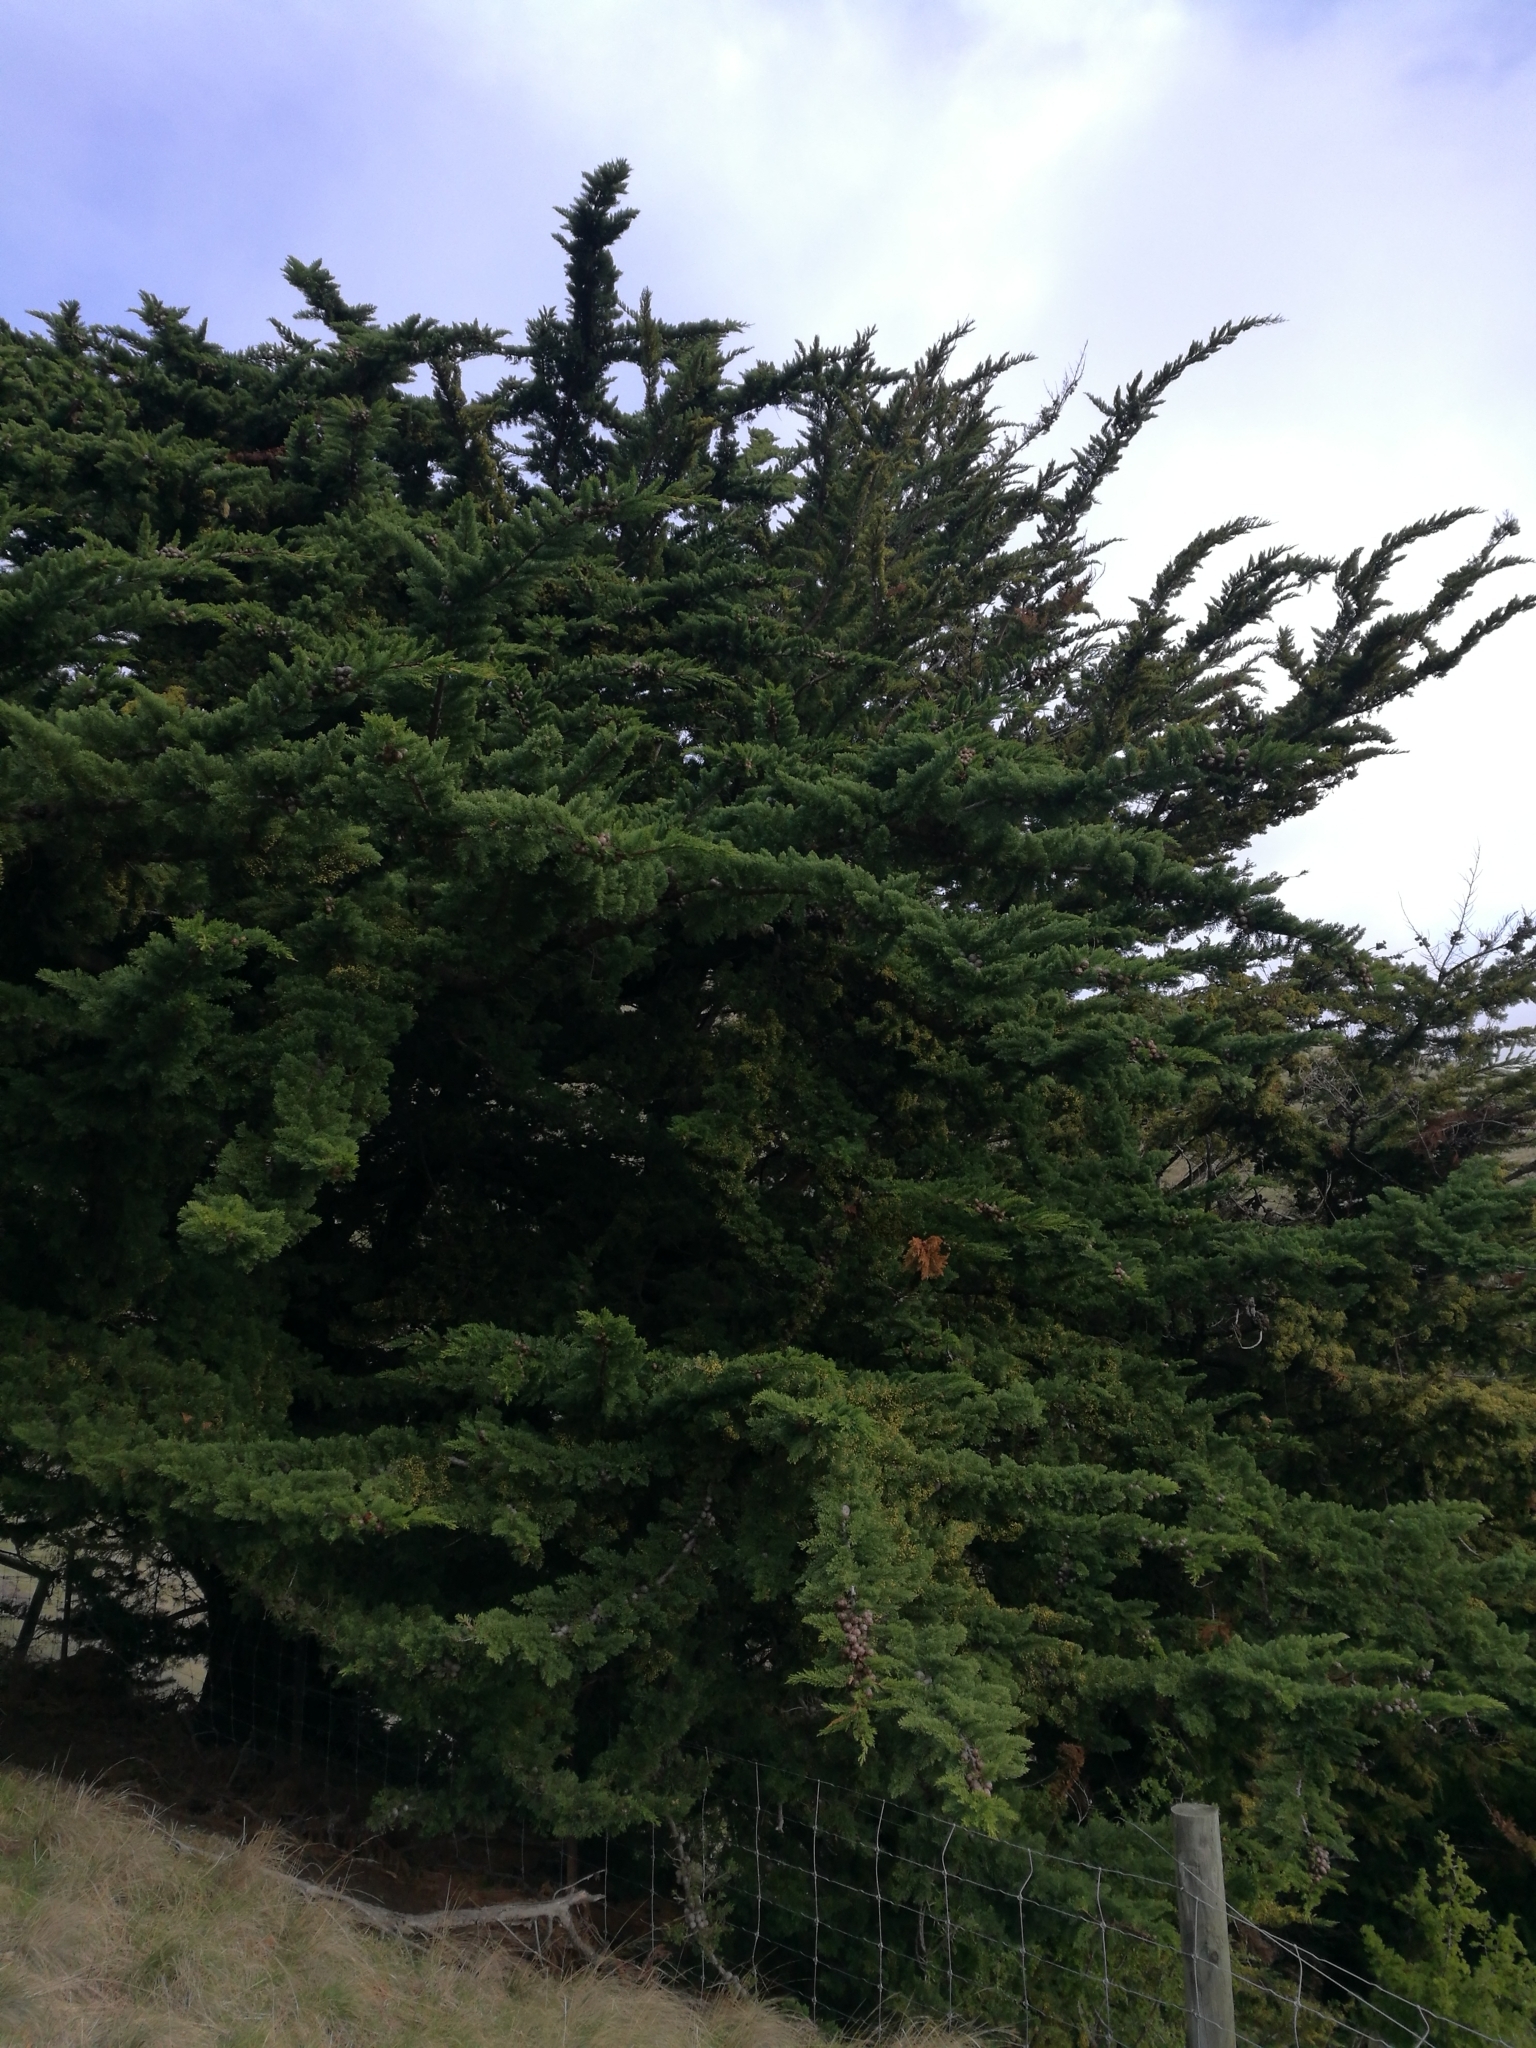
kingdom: Plantae
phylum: Tracheophyta
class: Pinopsida
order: Pinales
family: Cupressaceae
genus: Cupressus
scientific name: Cupressus macrocarpa
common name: Monterey cypress
